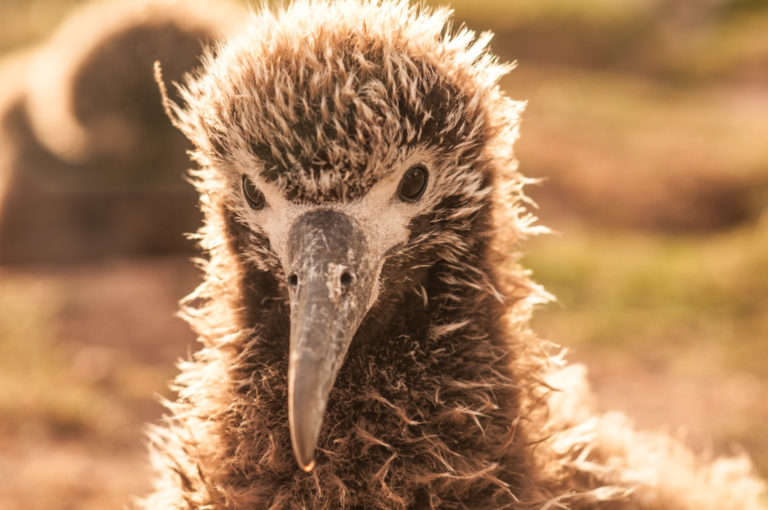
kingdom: Animalia
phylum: Chordata
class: Aves
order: Procellariiformes
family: Diomedeidae
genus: Phoebastria
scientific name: Phoebastria immutabilis
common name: Laysan albatross
